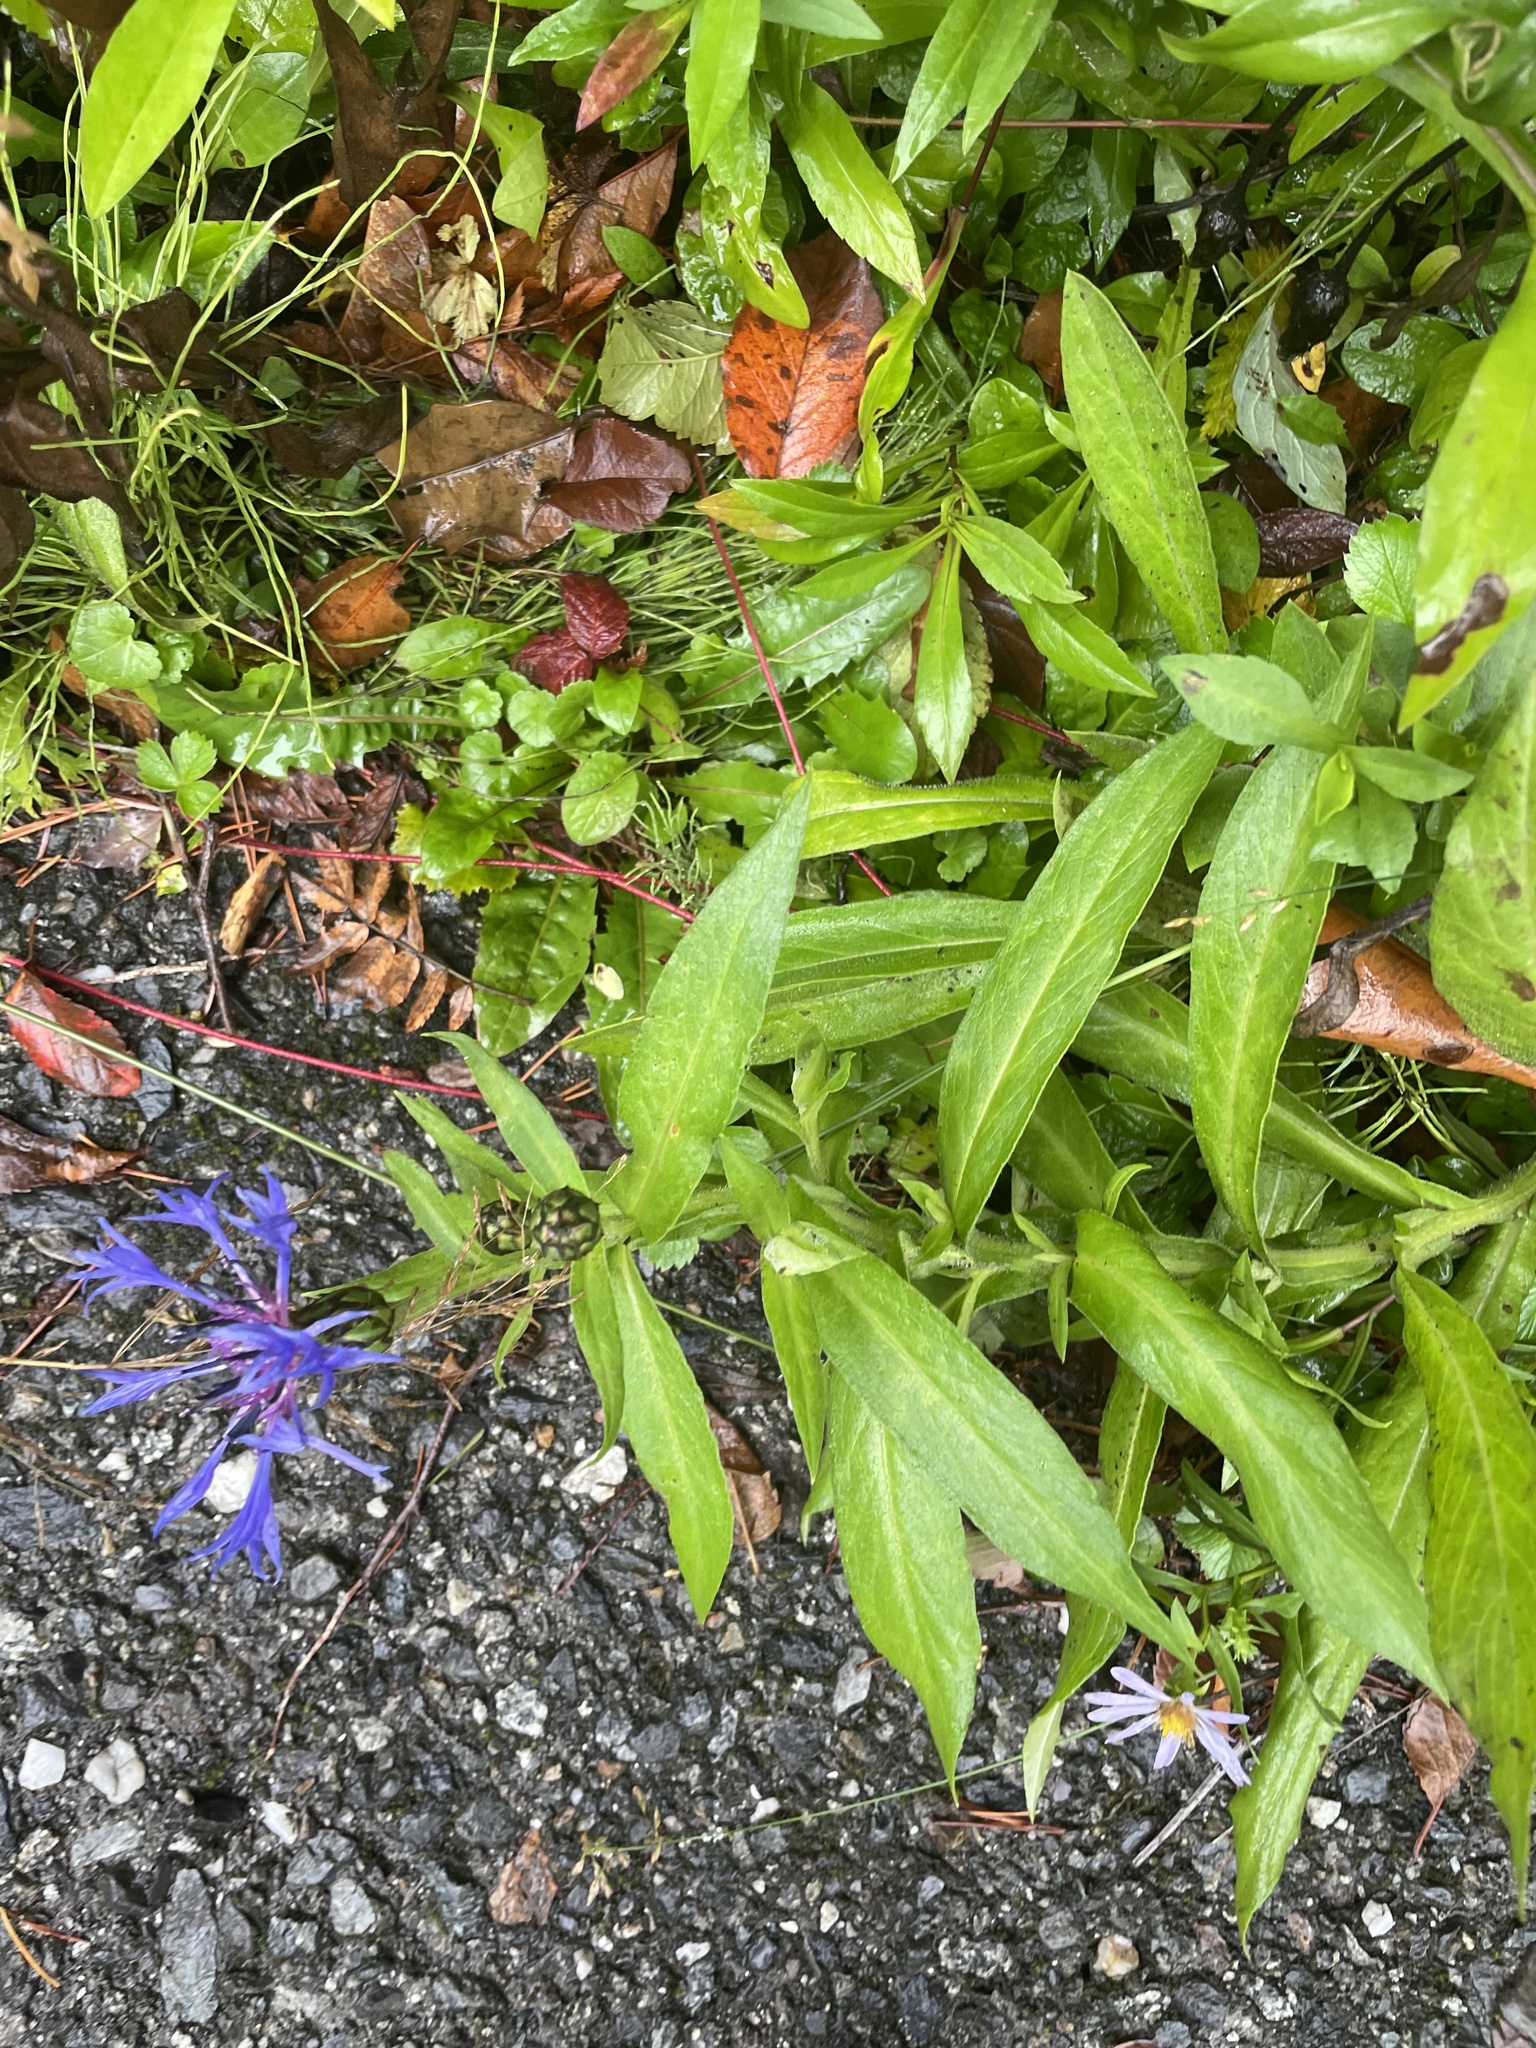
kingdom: Plantae
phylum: Tracheophyta
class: Magnoliopsida
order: Asterales
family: Asteraceae
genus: Centaurea
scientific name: Centaurea montana
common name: Perennial cornflower
